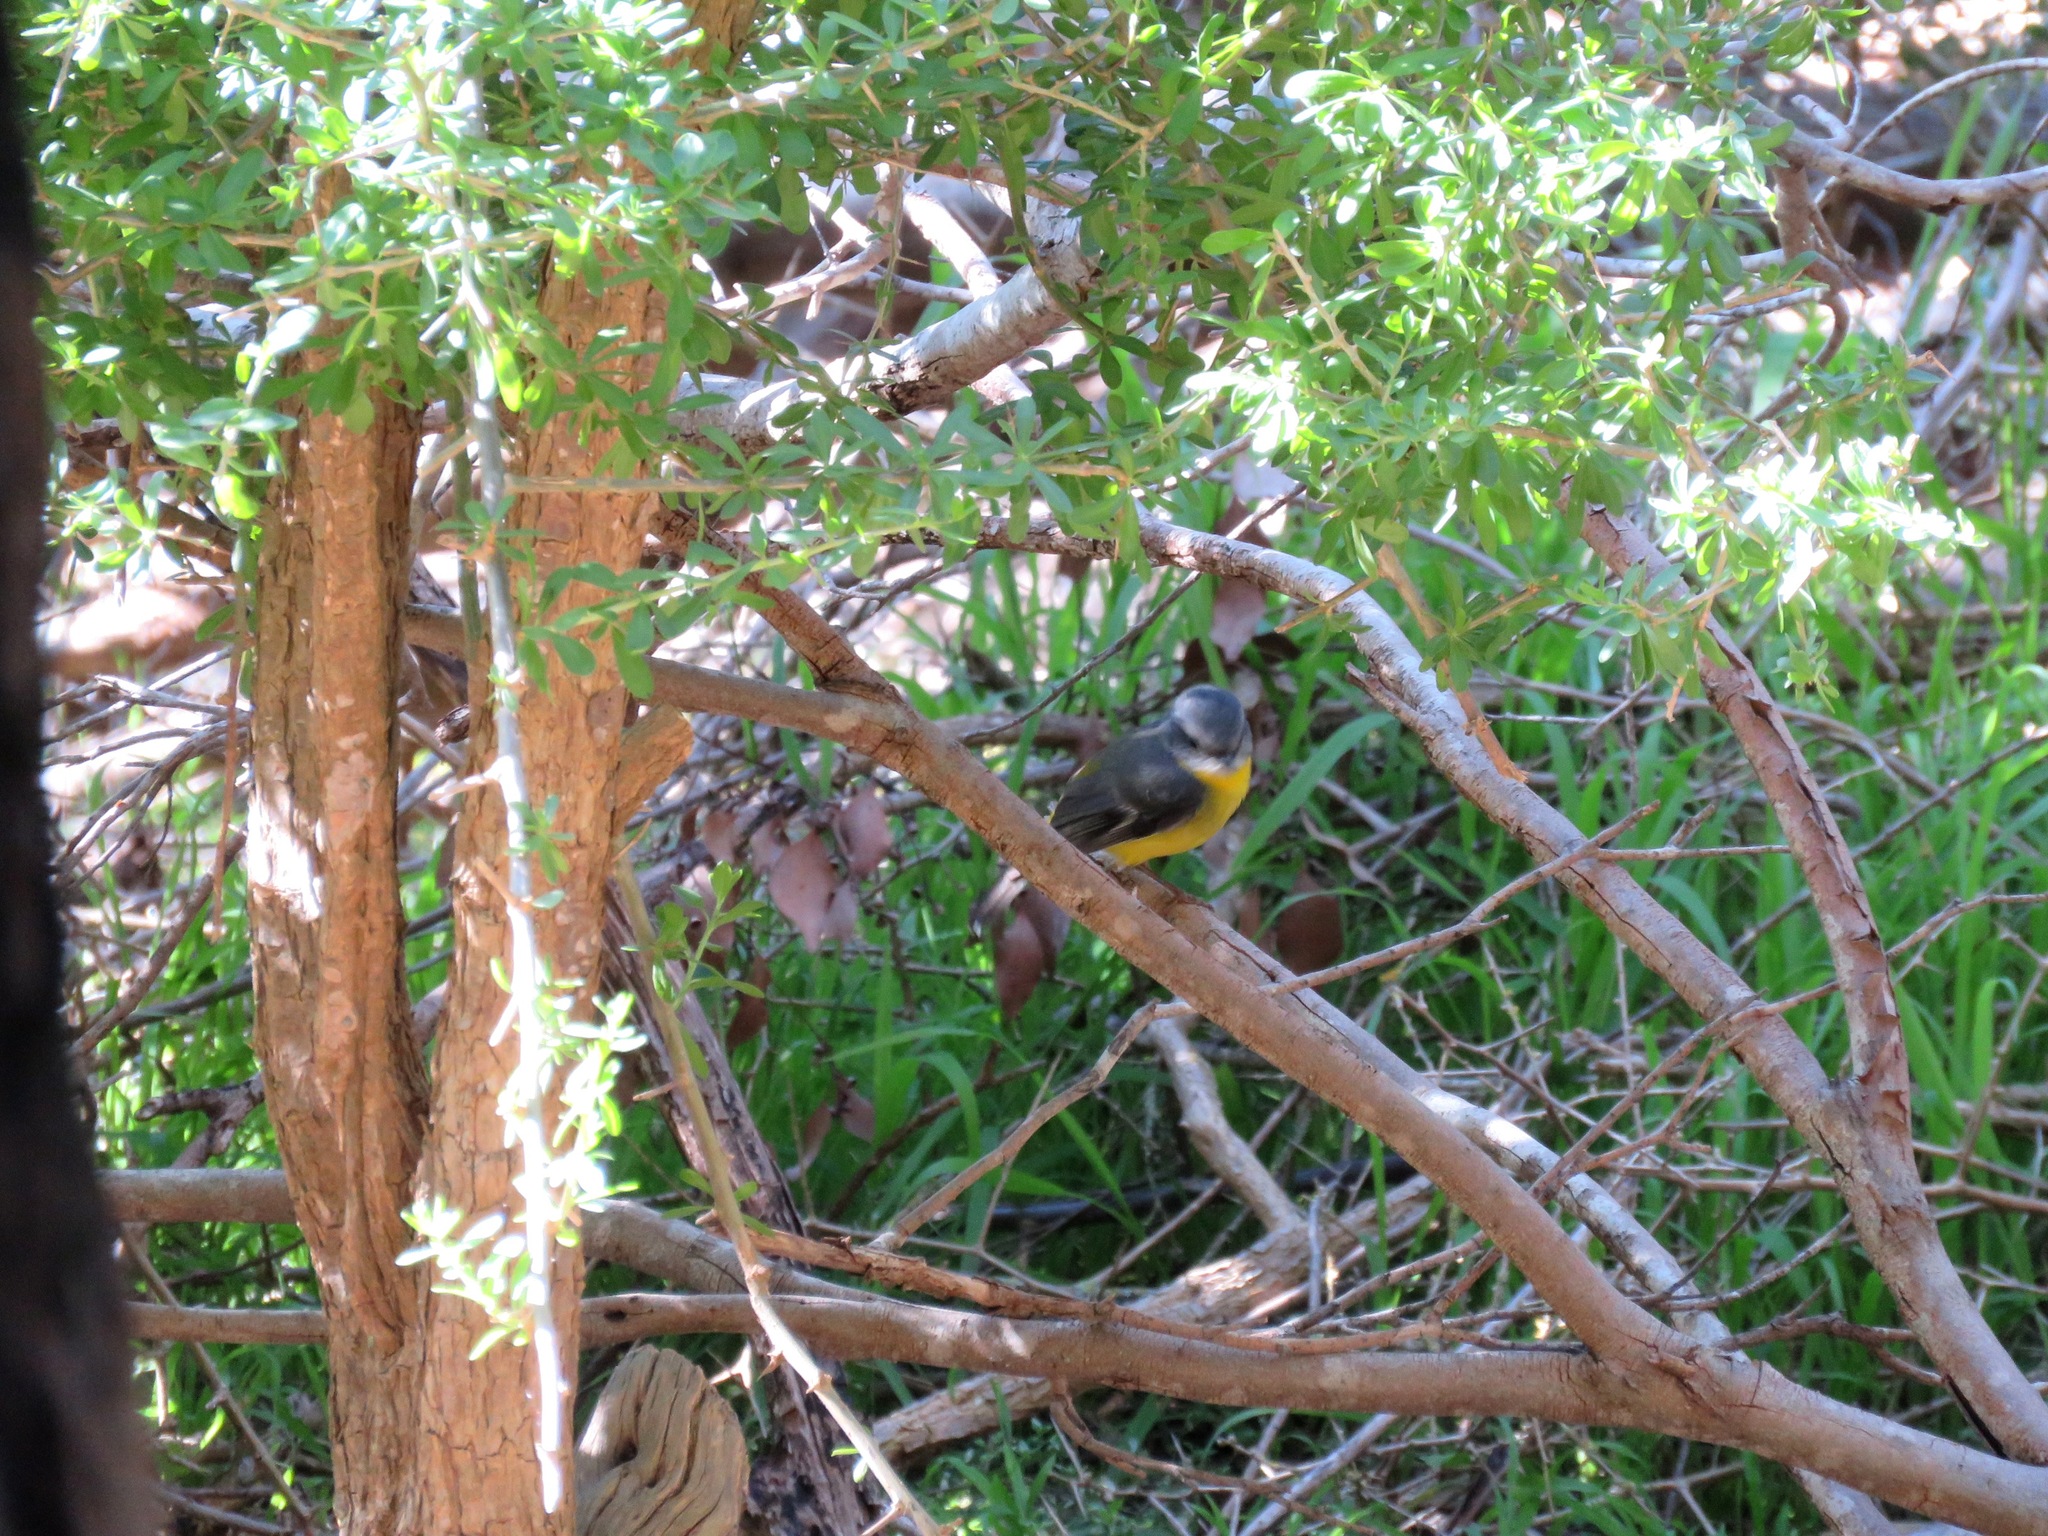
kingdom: Animalia
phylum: Chordata
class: Aves
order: Passeriformes
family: Petroicidae
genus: Eopsaltria
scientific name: Eopsaltria australis
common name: Eastern yellow robin
